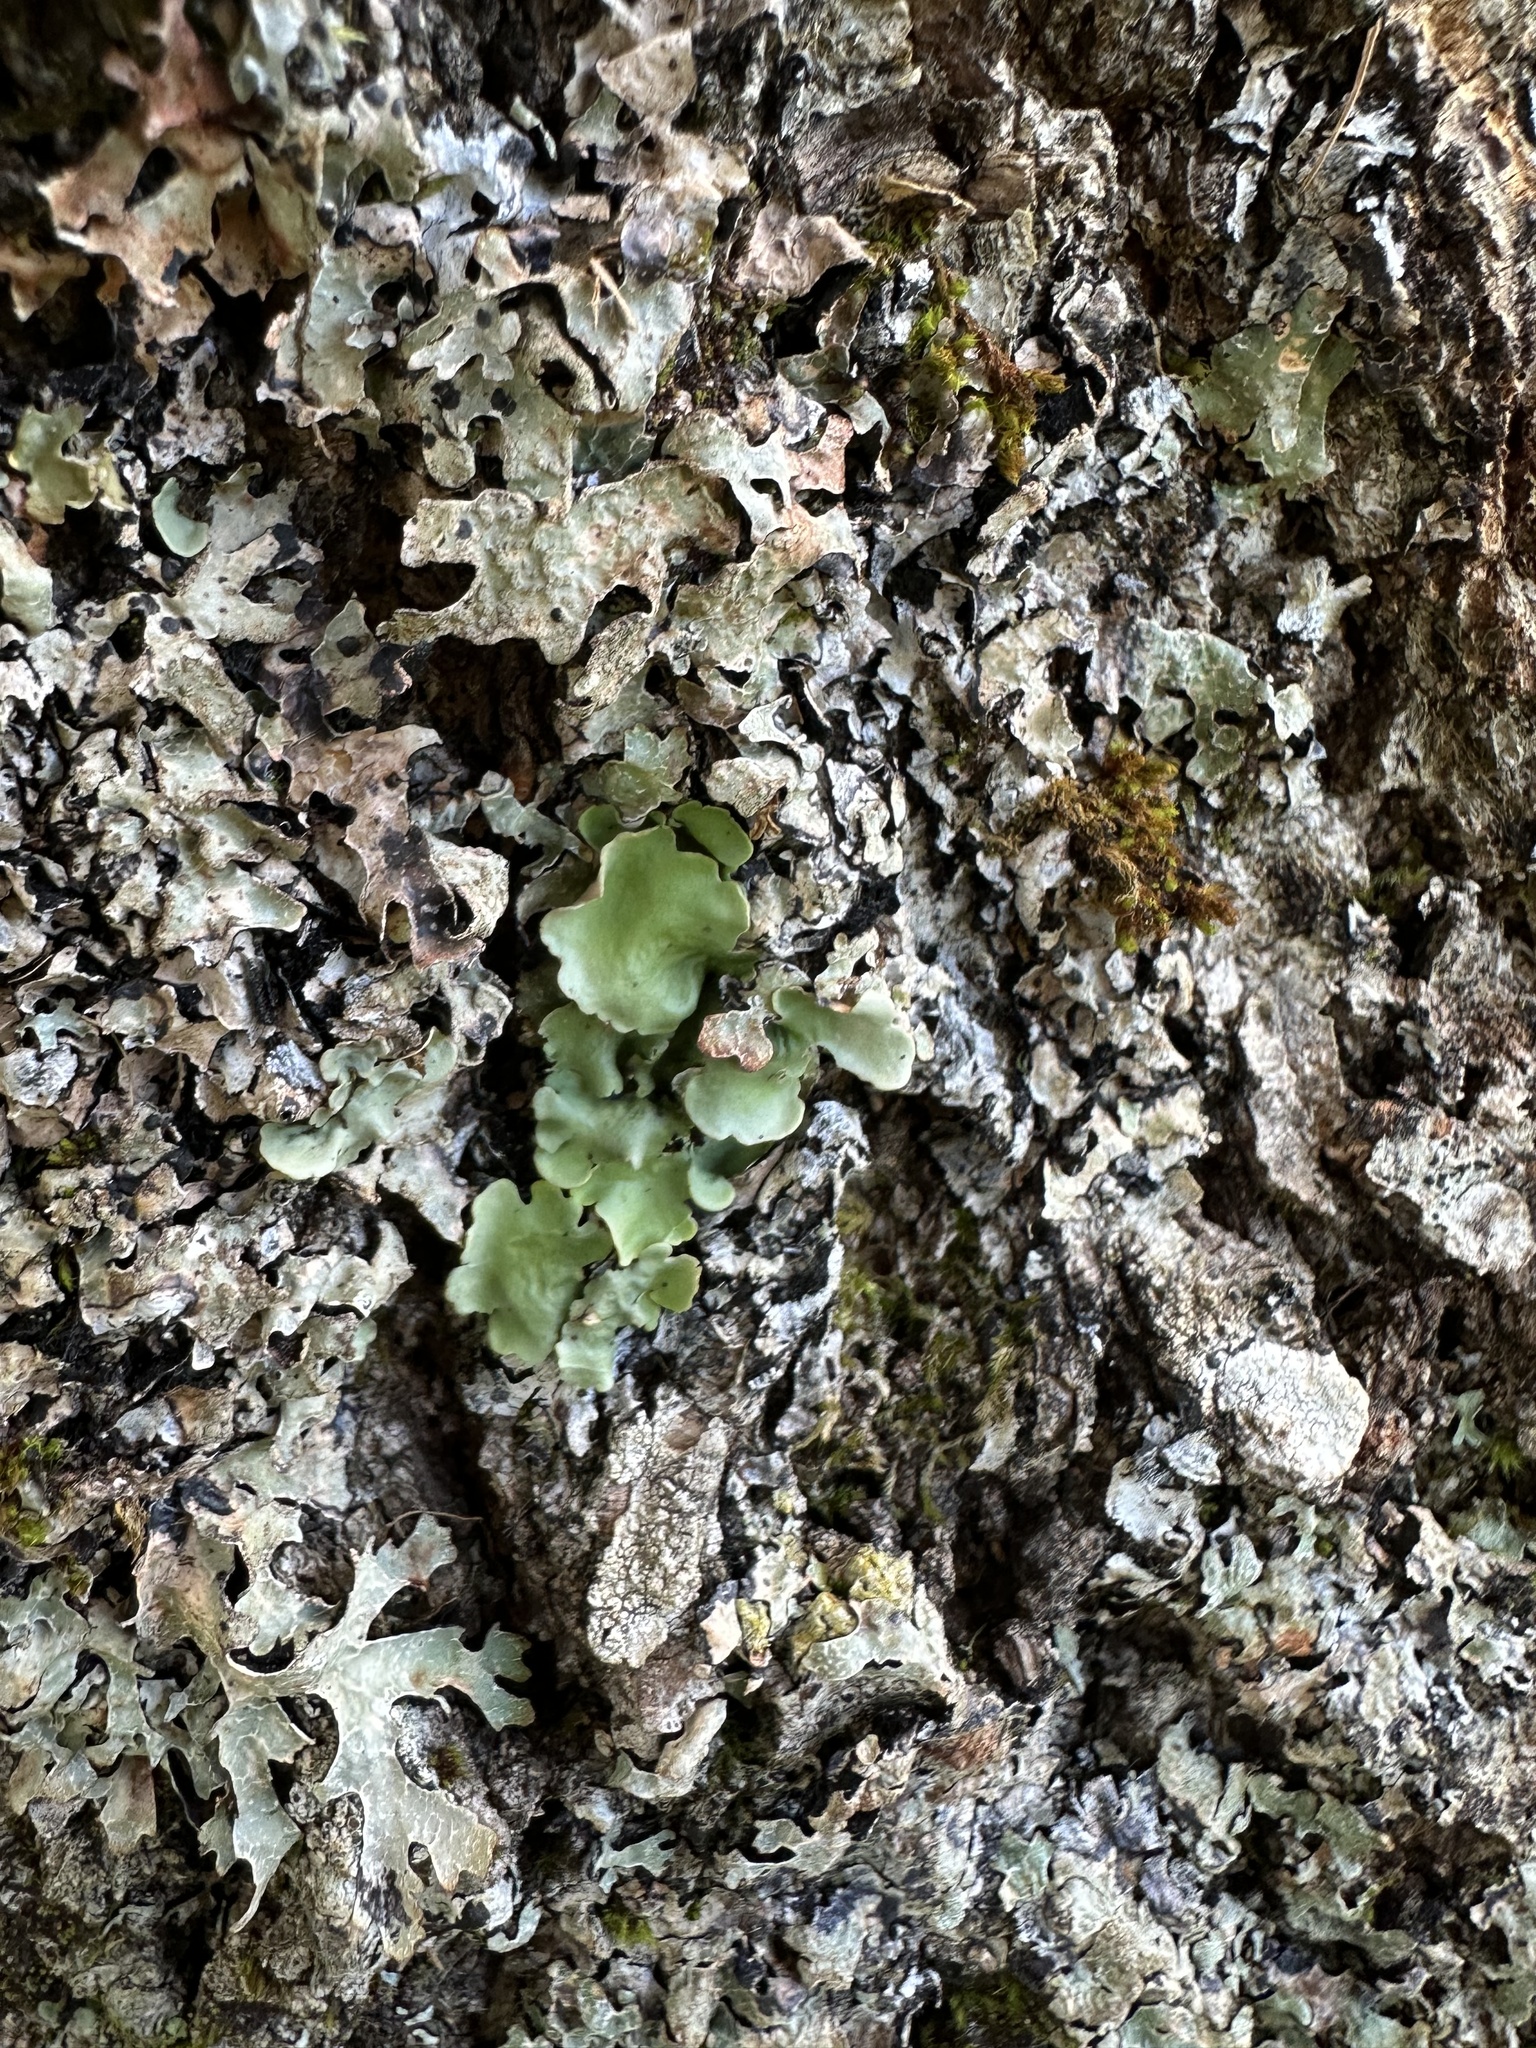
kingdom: Fungi
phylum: Ascomycota
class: Lecanoromycetes
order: Peltigerales
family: Lobariaceae
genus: Ricasolia
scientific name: Ricasolia quercizans
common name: Smooth lungwort
